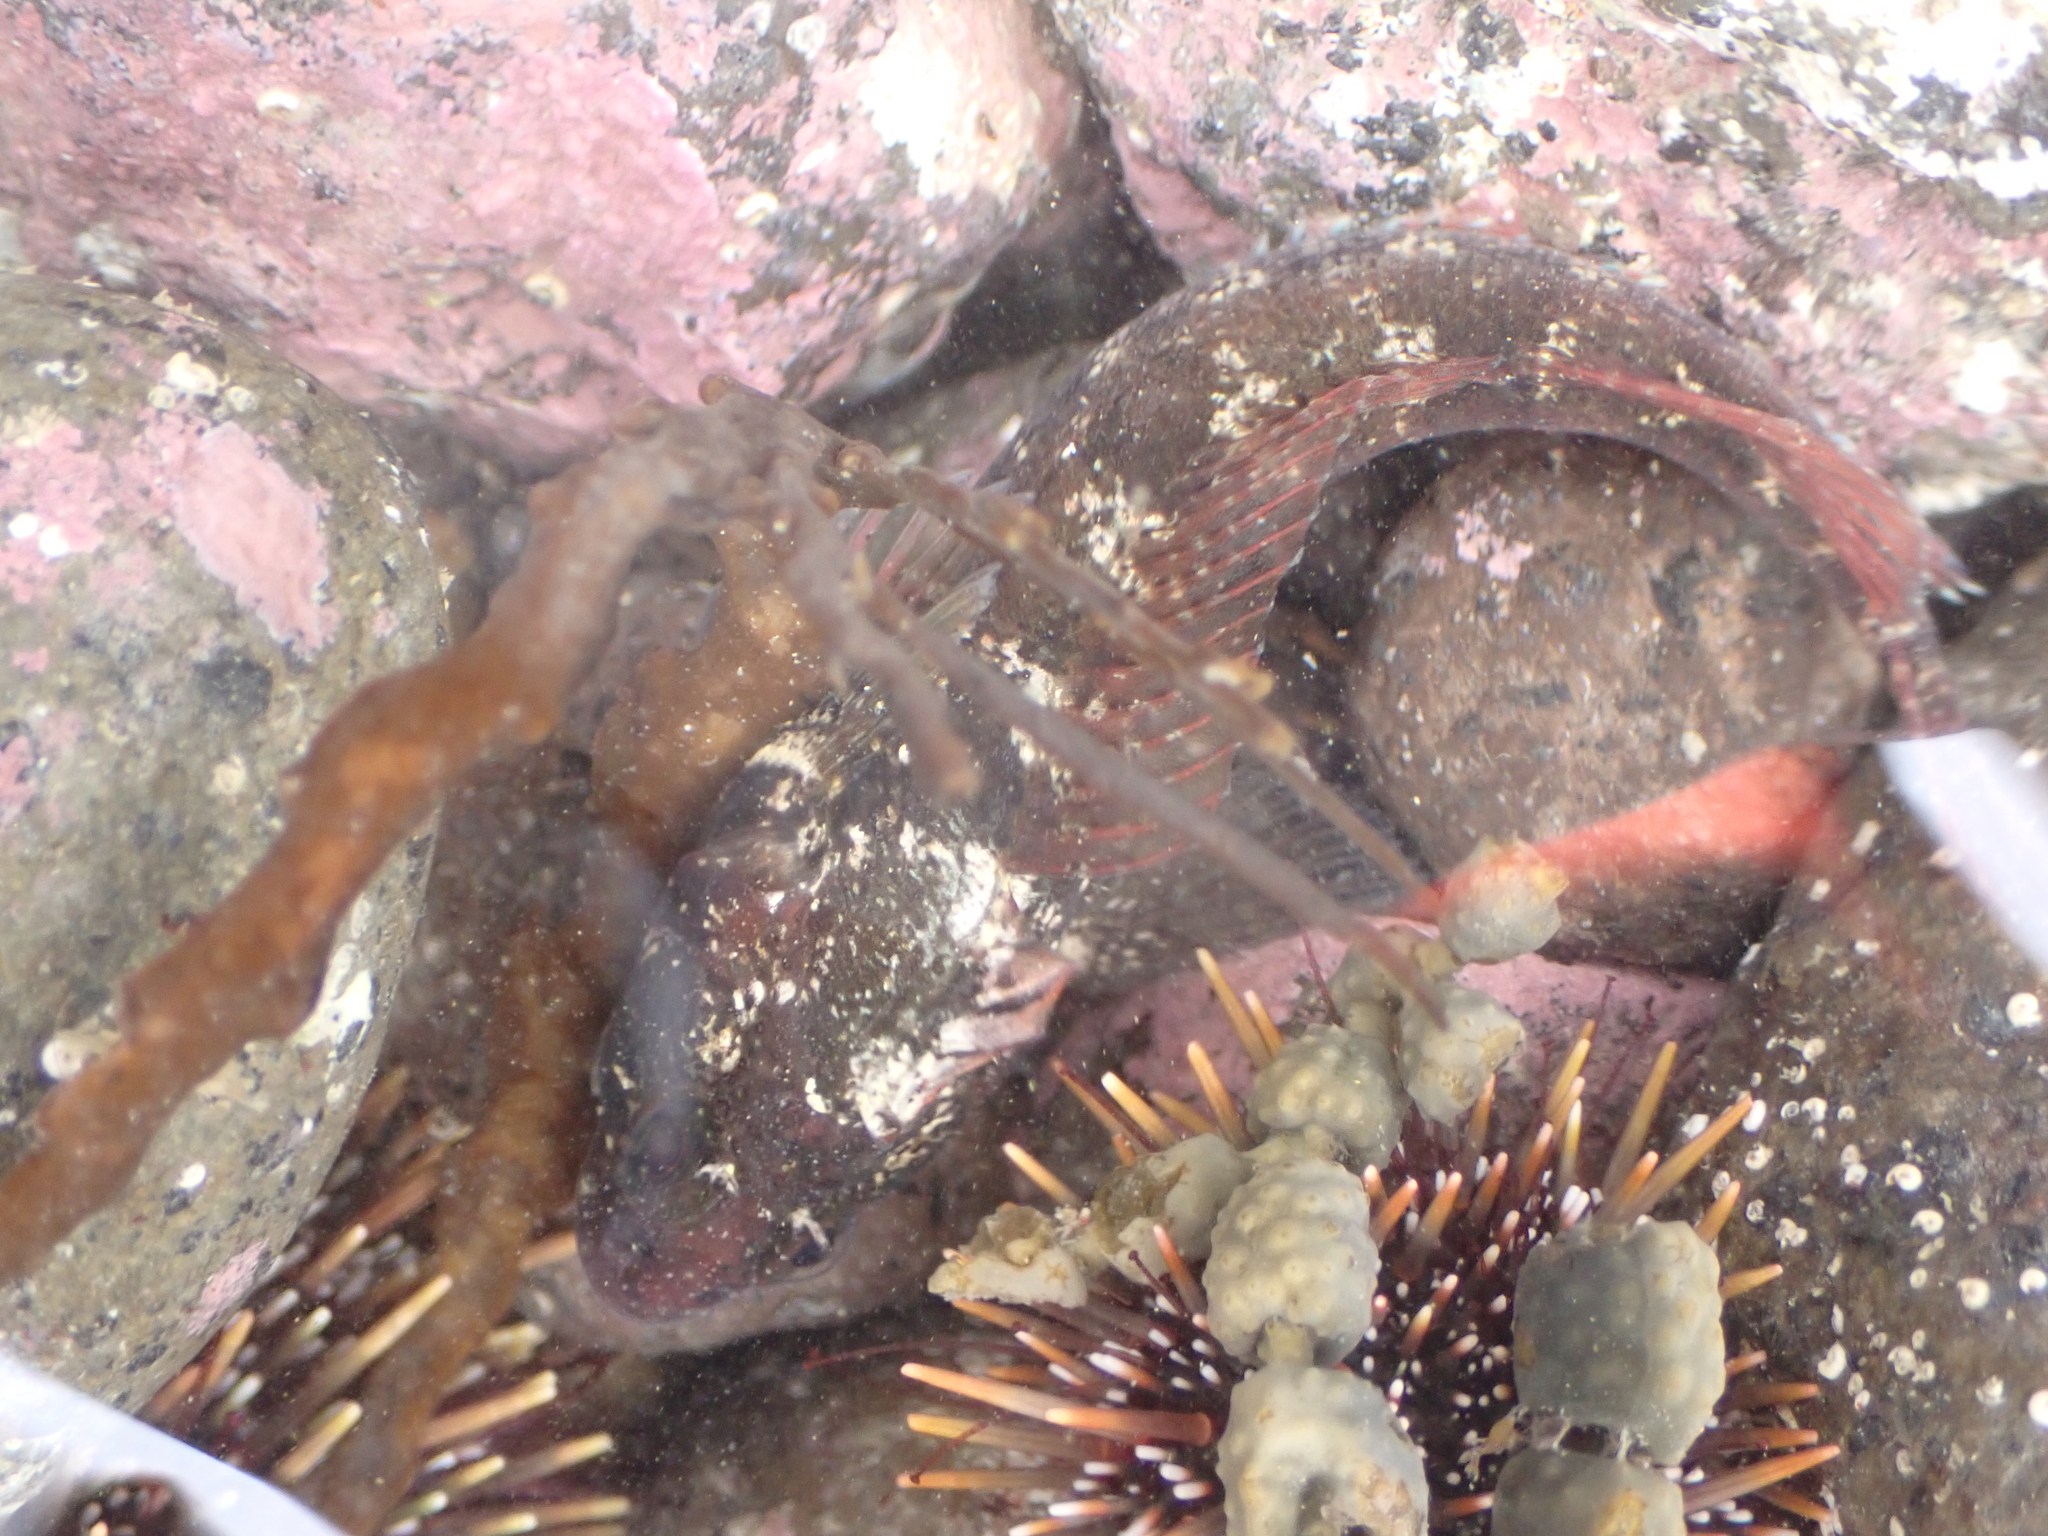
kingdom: Animalia
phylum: Chordata
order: Perciformes
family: Tripterygiidae
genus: Gilloblennius
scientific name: Gilloblennius tripennis
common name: Thripenny
